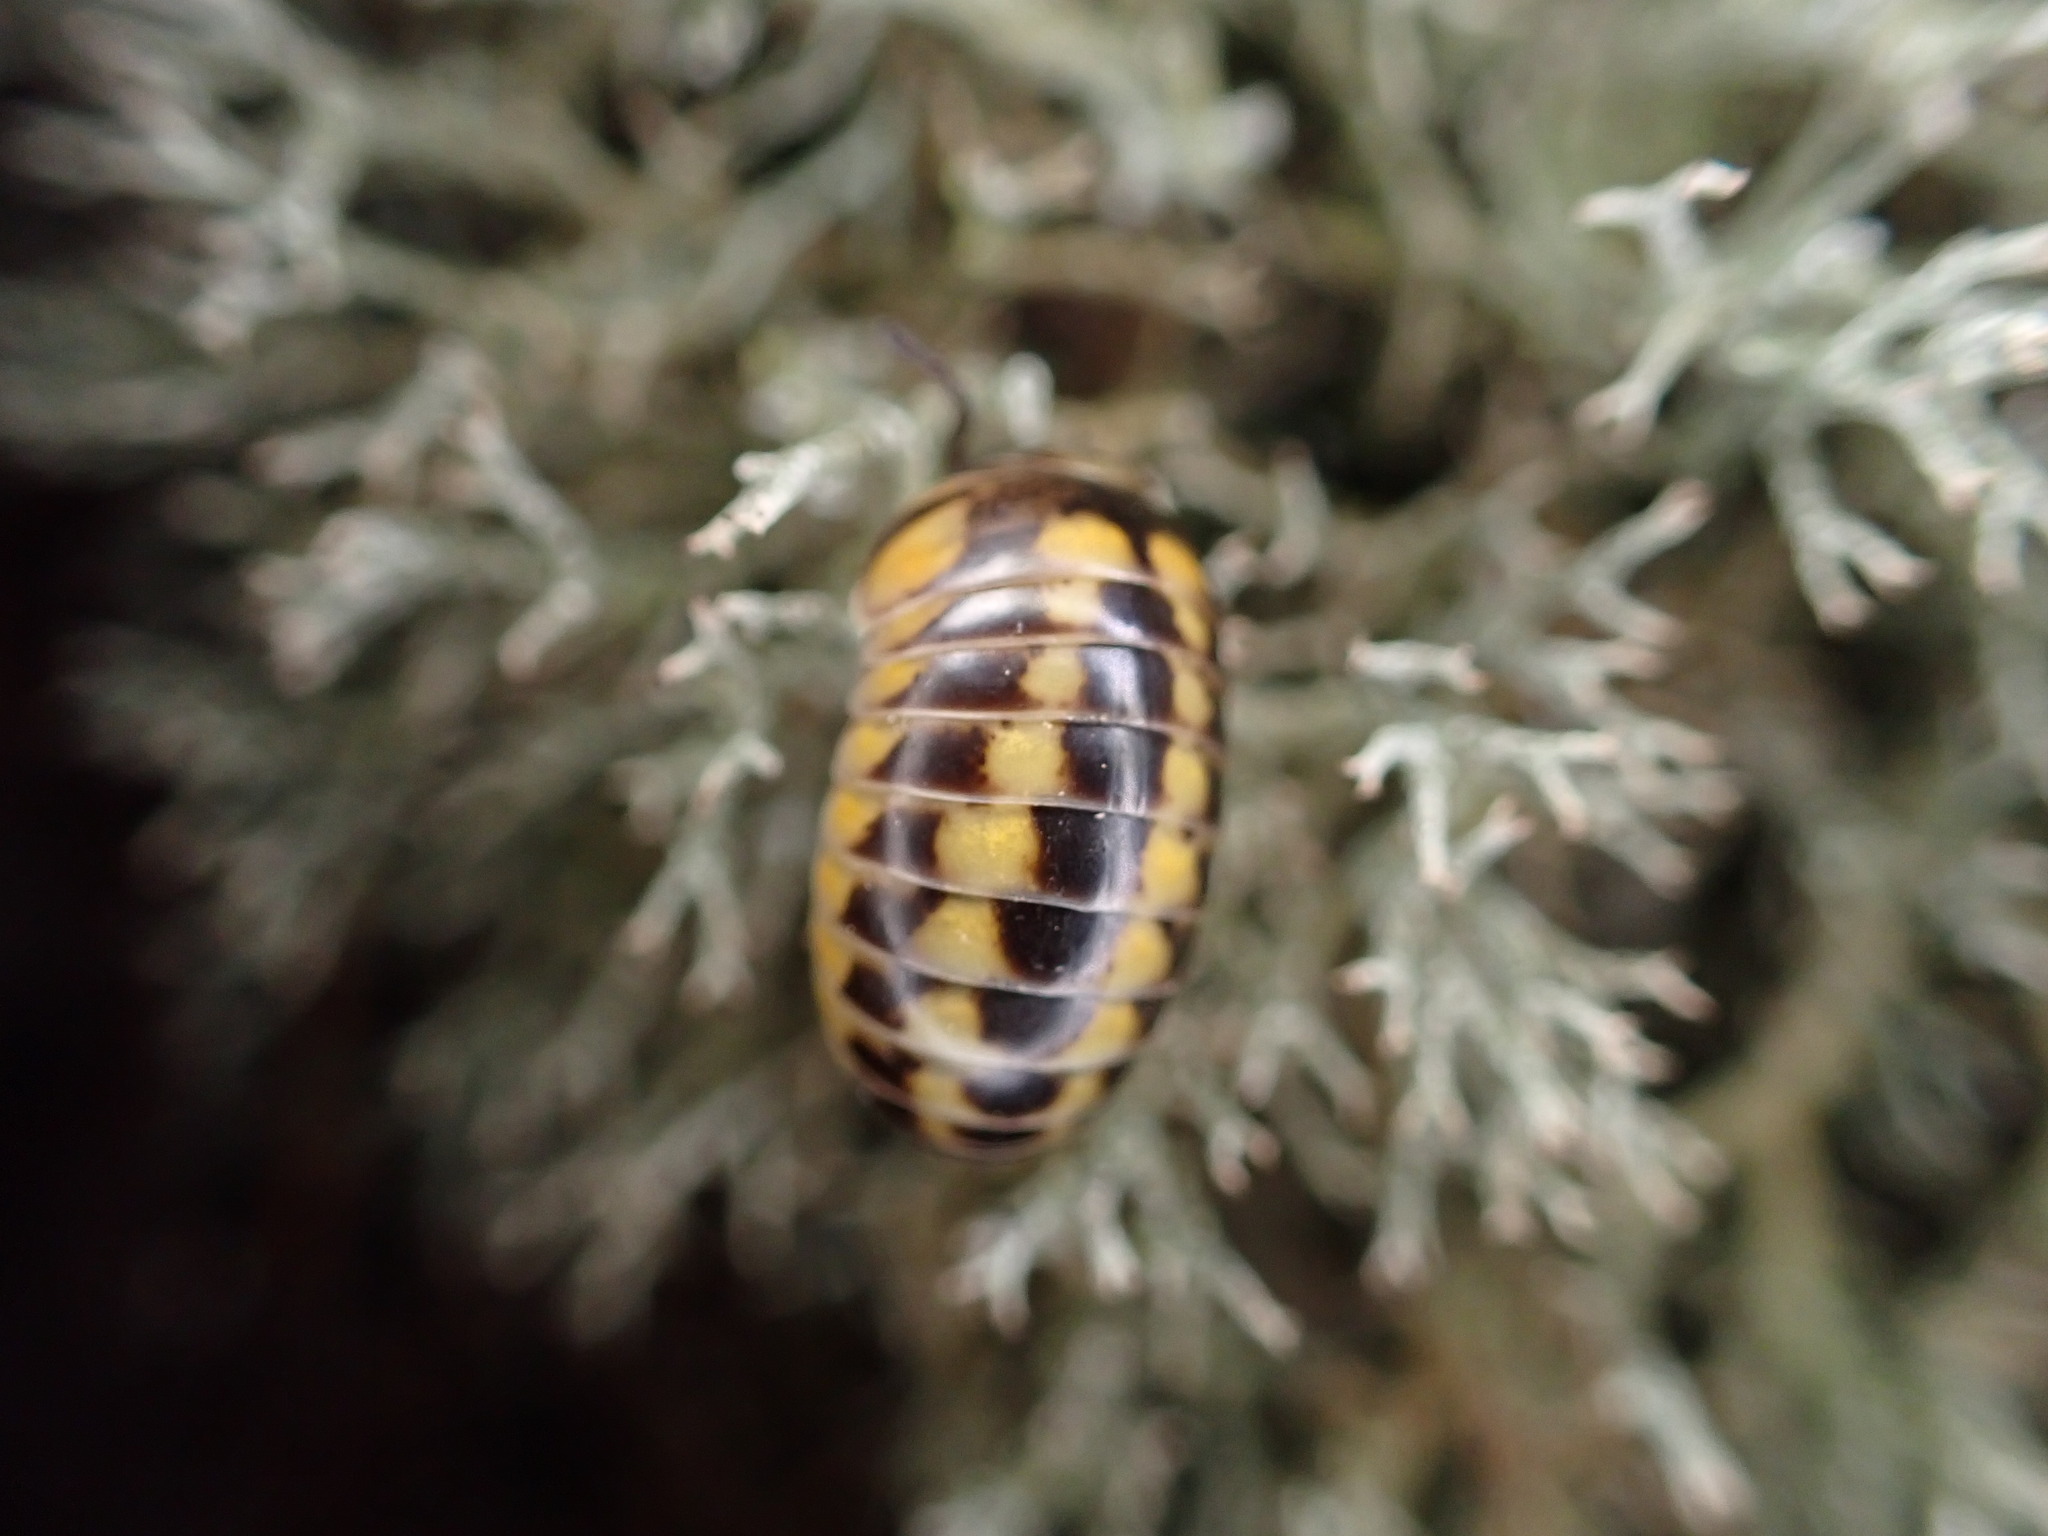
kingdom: Animalia
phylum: Arthropoda
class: Diplopoda
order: Glomerida
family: Glomeridae
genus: Glomeris
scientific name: Glomeris valesiaca
